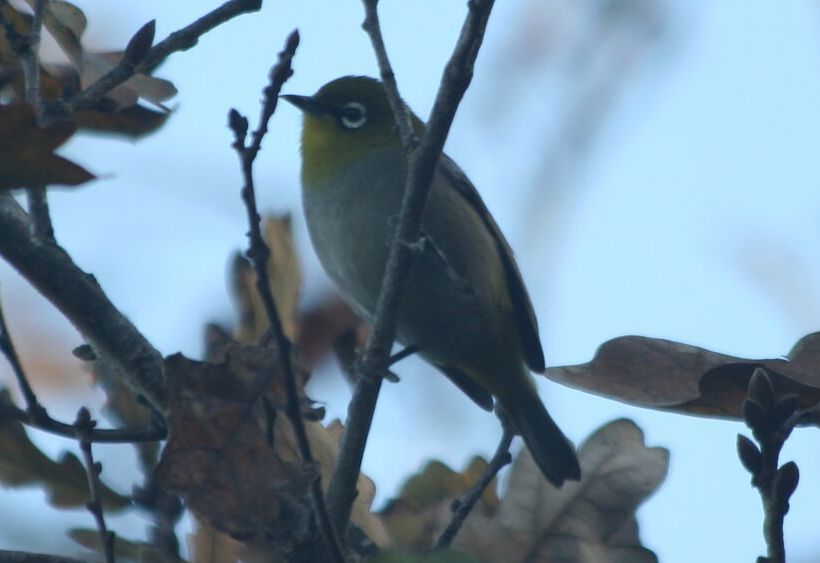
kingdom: Animalia
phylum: Chordata
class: Aves
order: Passeriformes
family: Zosteropidae
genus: Zosterops
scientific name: Zosterops virens
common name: Cape white-eye
